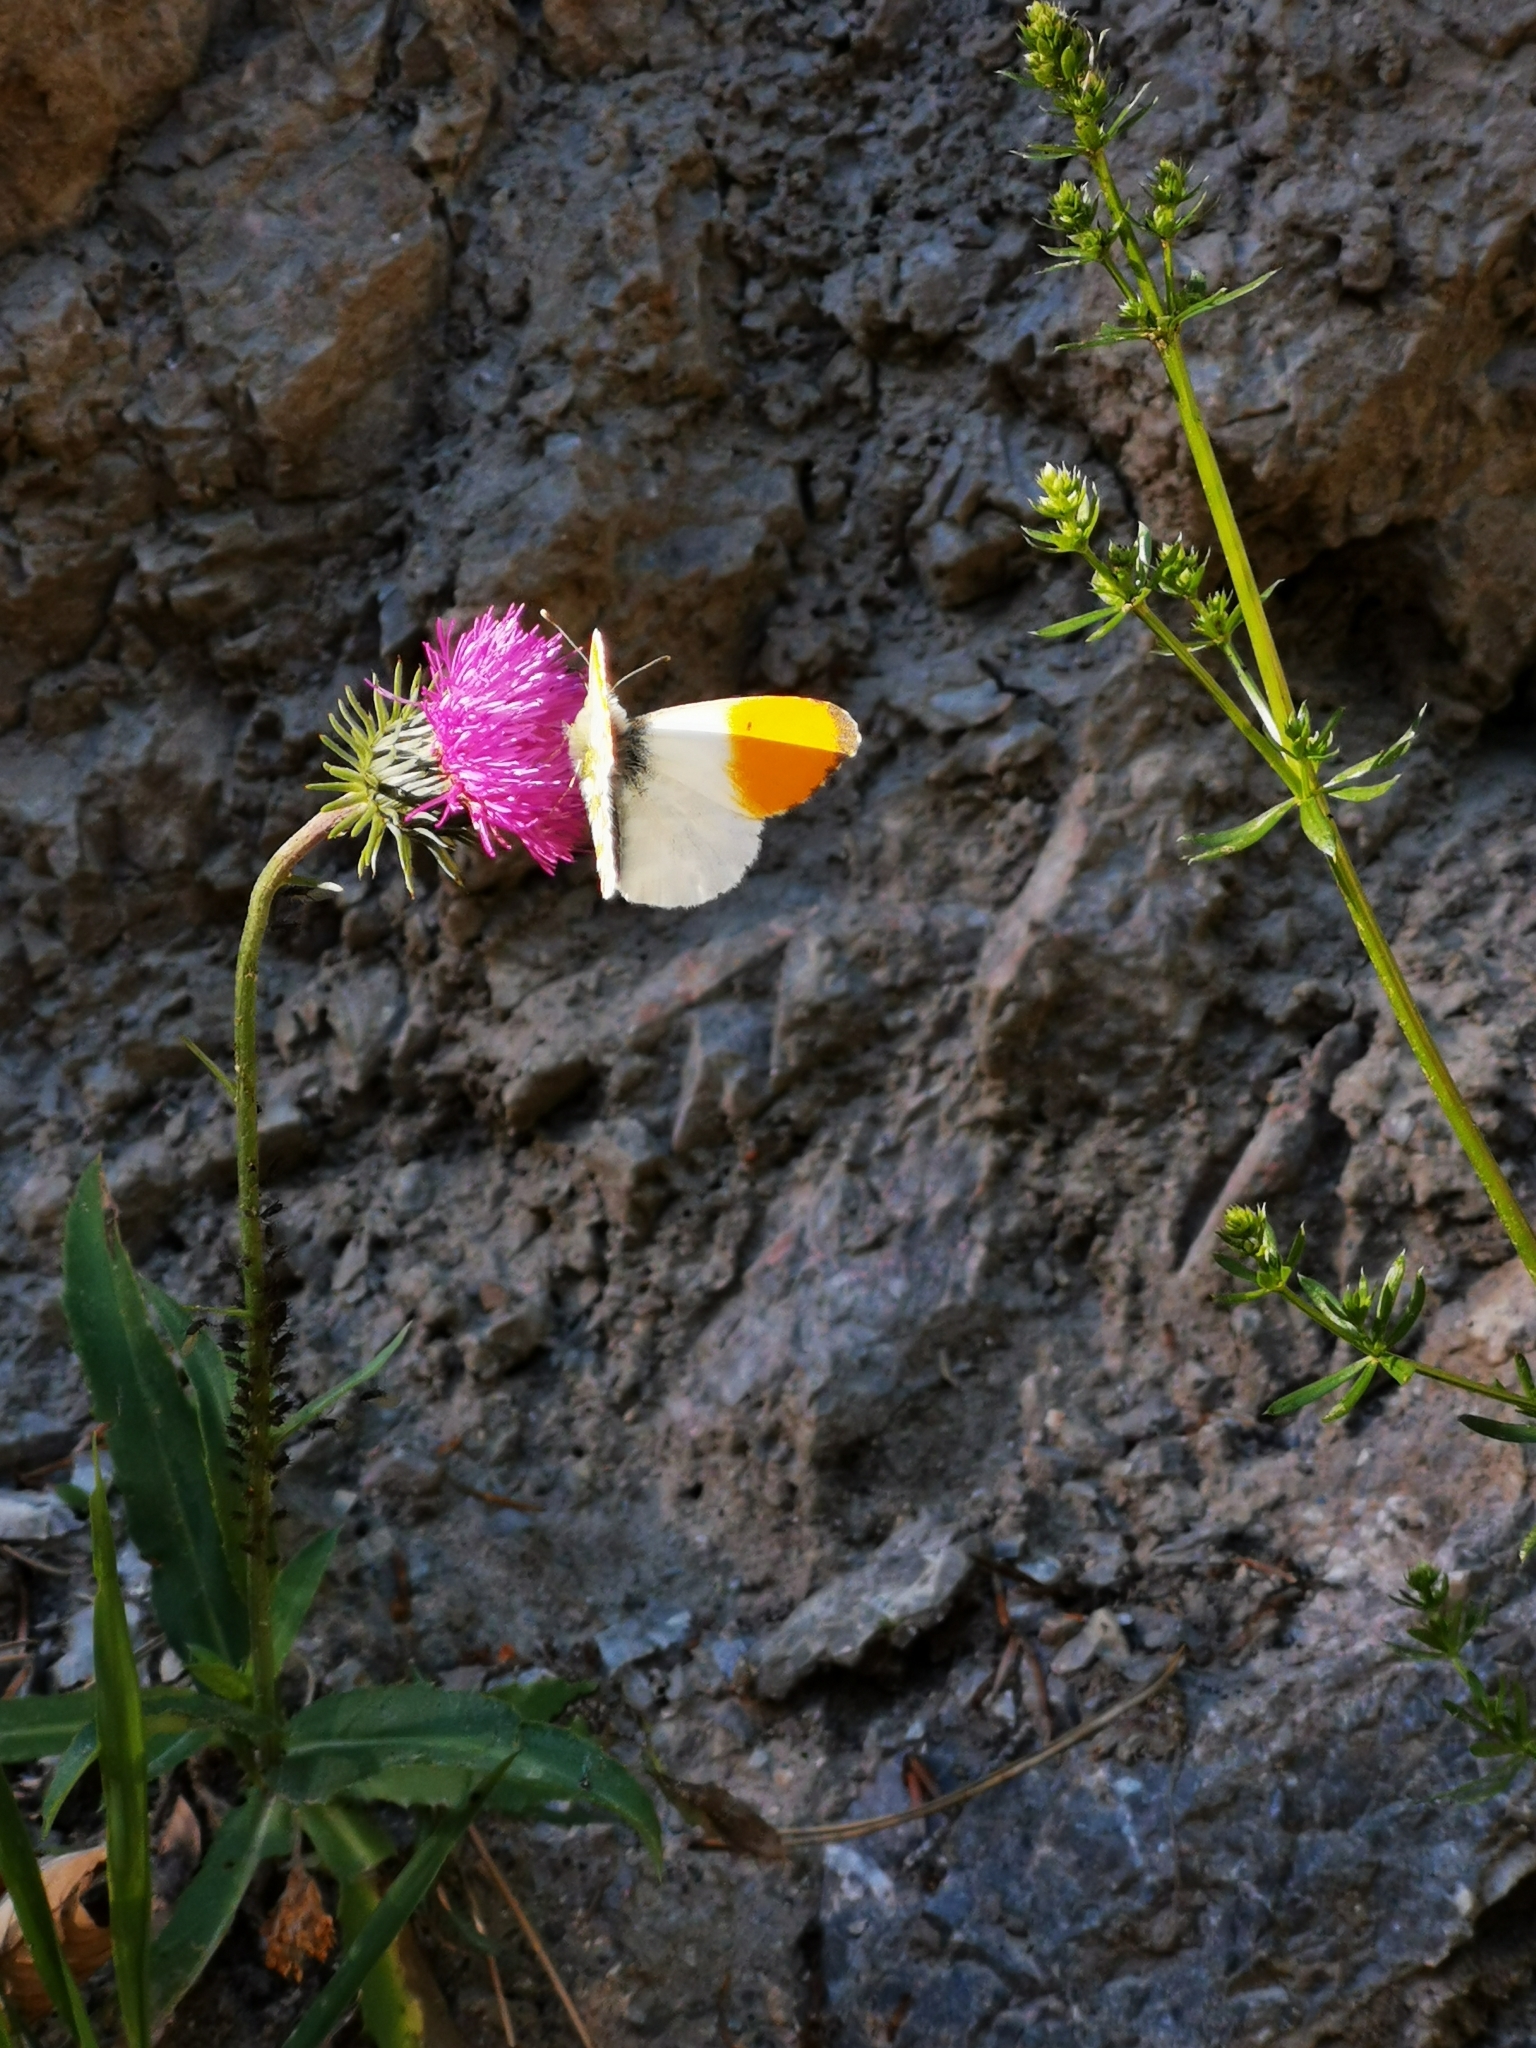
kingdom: Animalia
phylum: Arthropoda
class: Insecta
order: Lepidoptera
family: Pieridae
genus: Anthocharis
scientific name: Anthocharis cardamines
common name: Orange-tip
